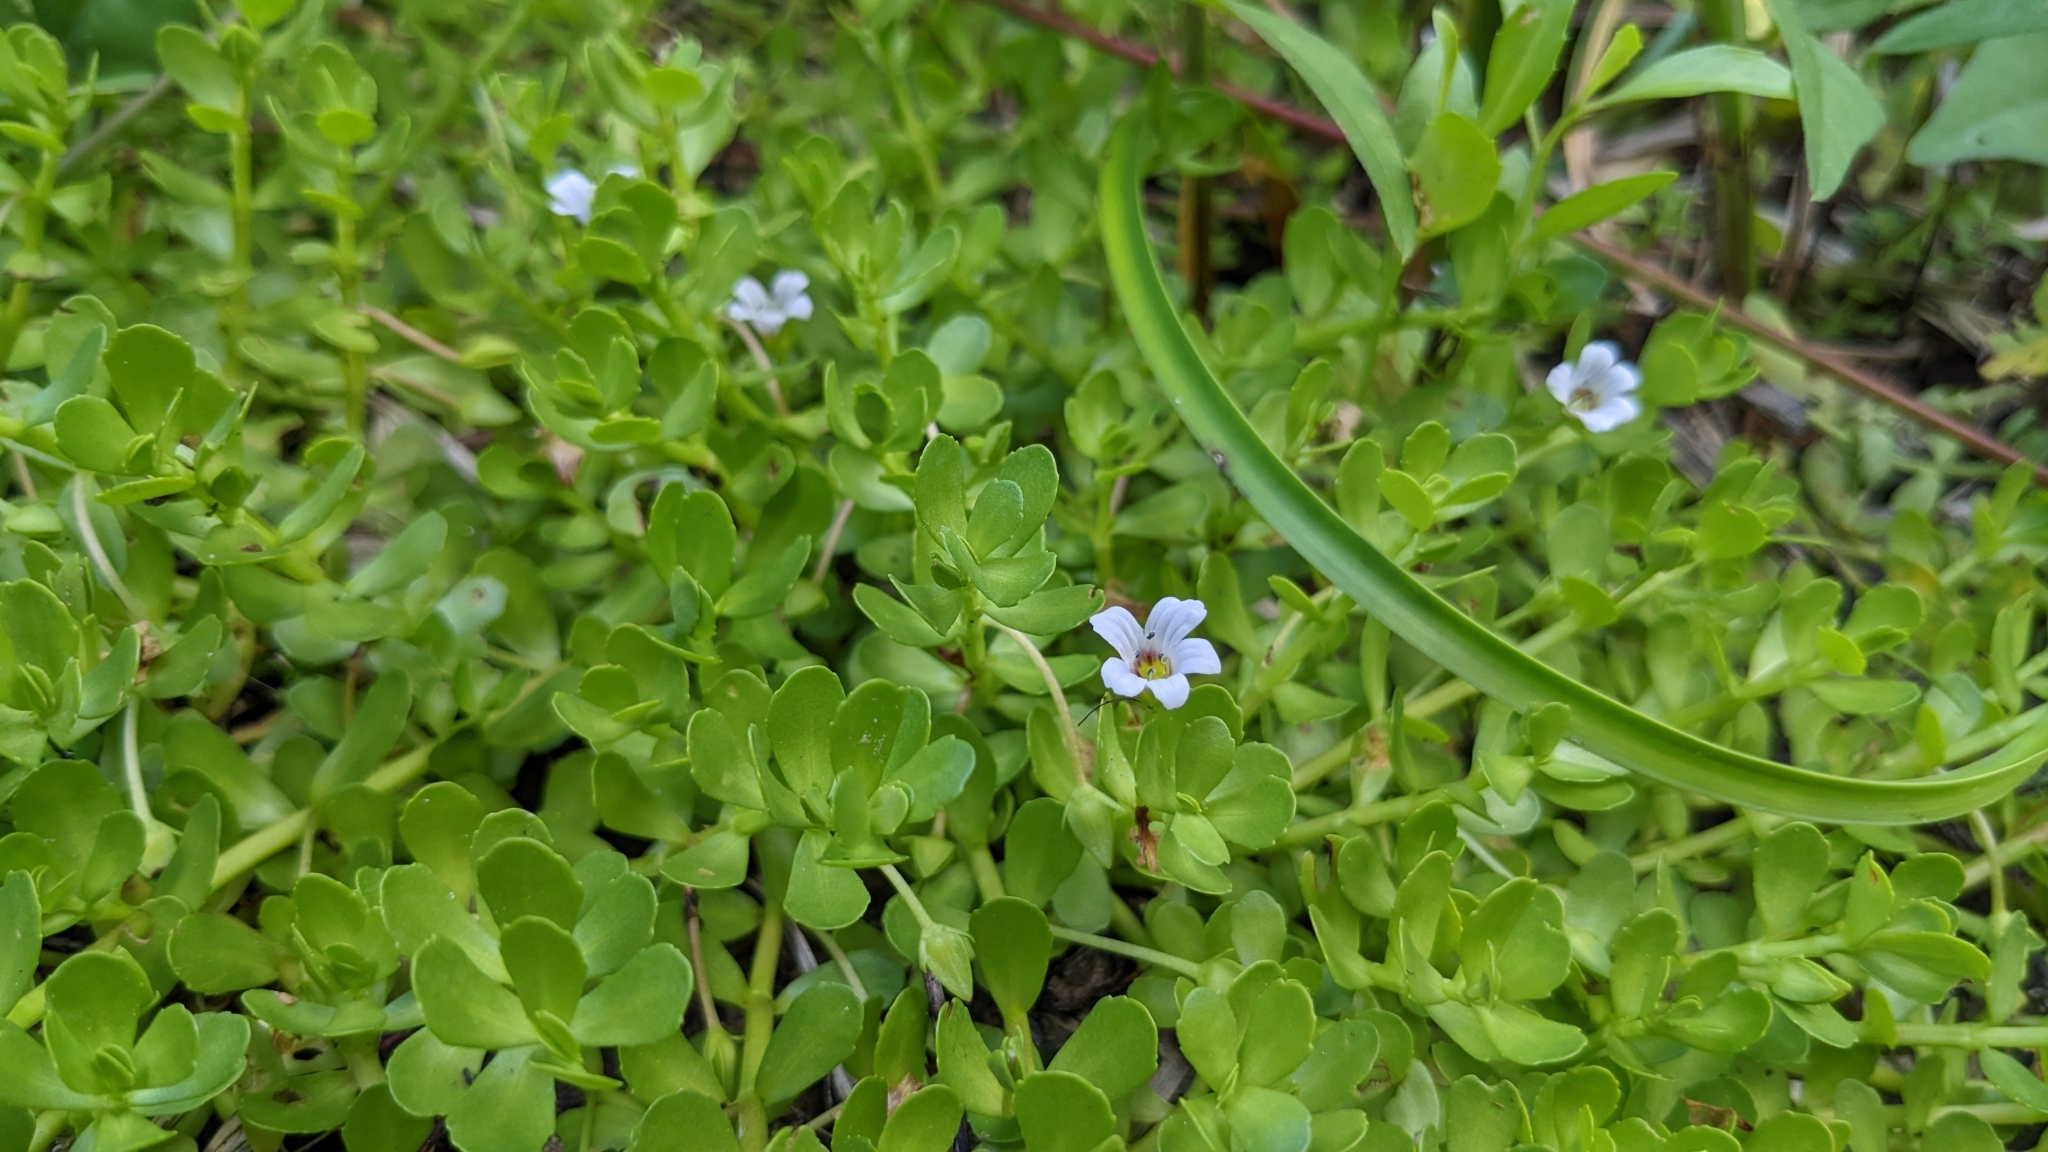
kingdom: Plantae
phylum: Tracheophyta
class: Magnoliopsida
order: Lamiales
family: Plantaginaceae
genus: Bacopa
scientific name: Bacopa monnieri
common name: Indian-pennywort
